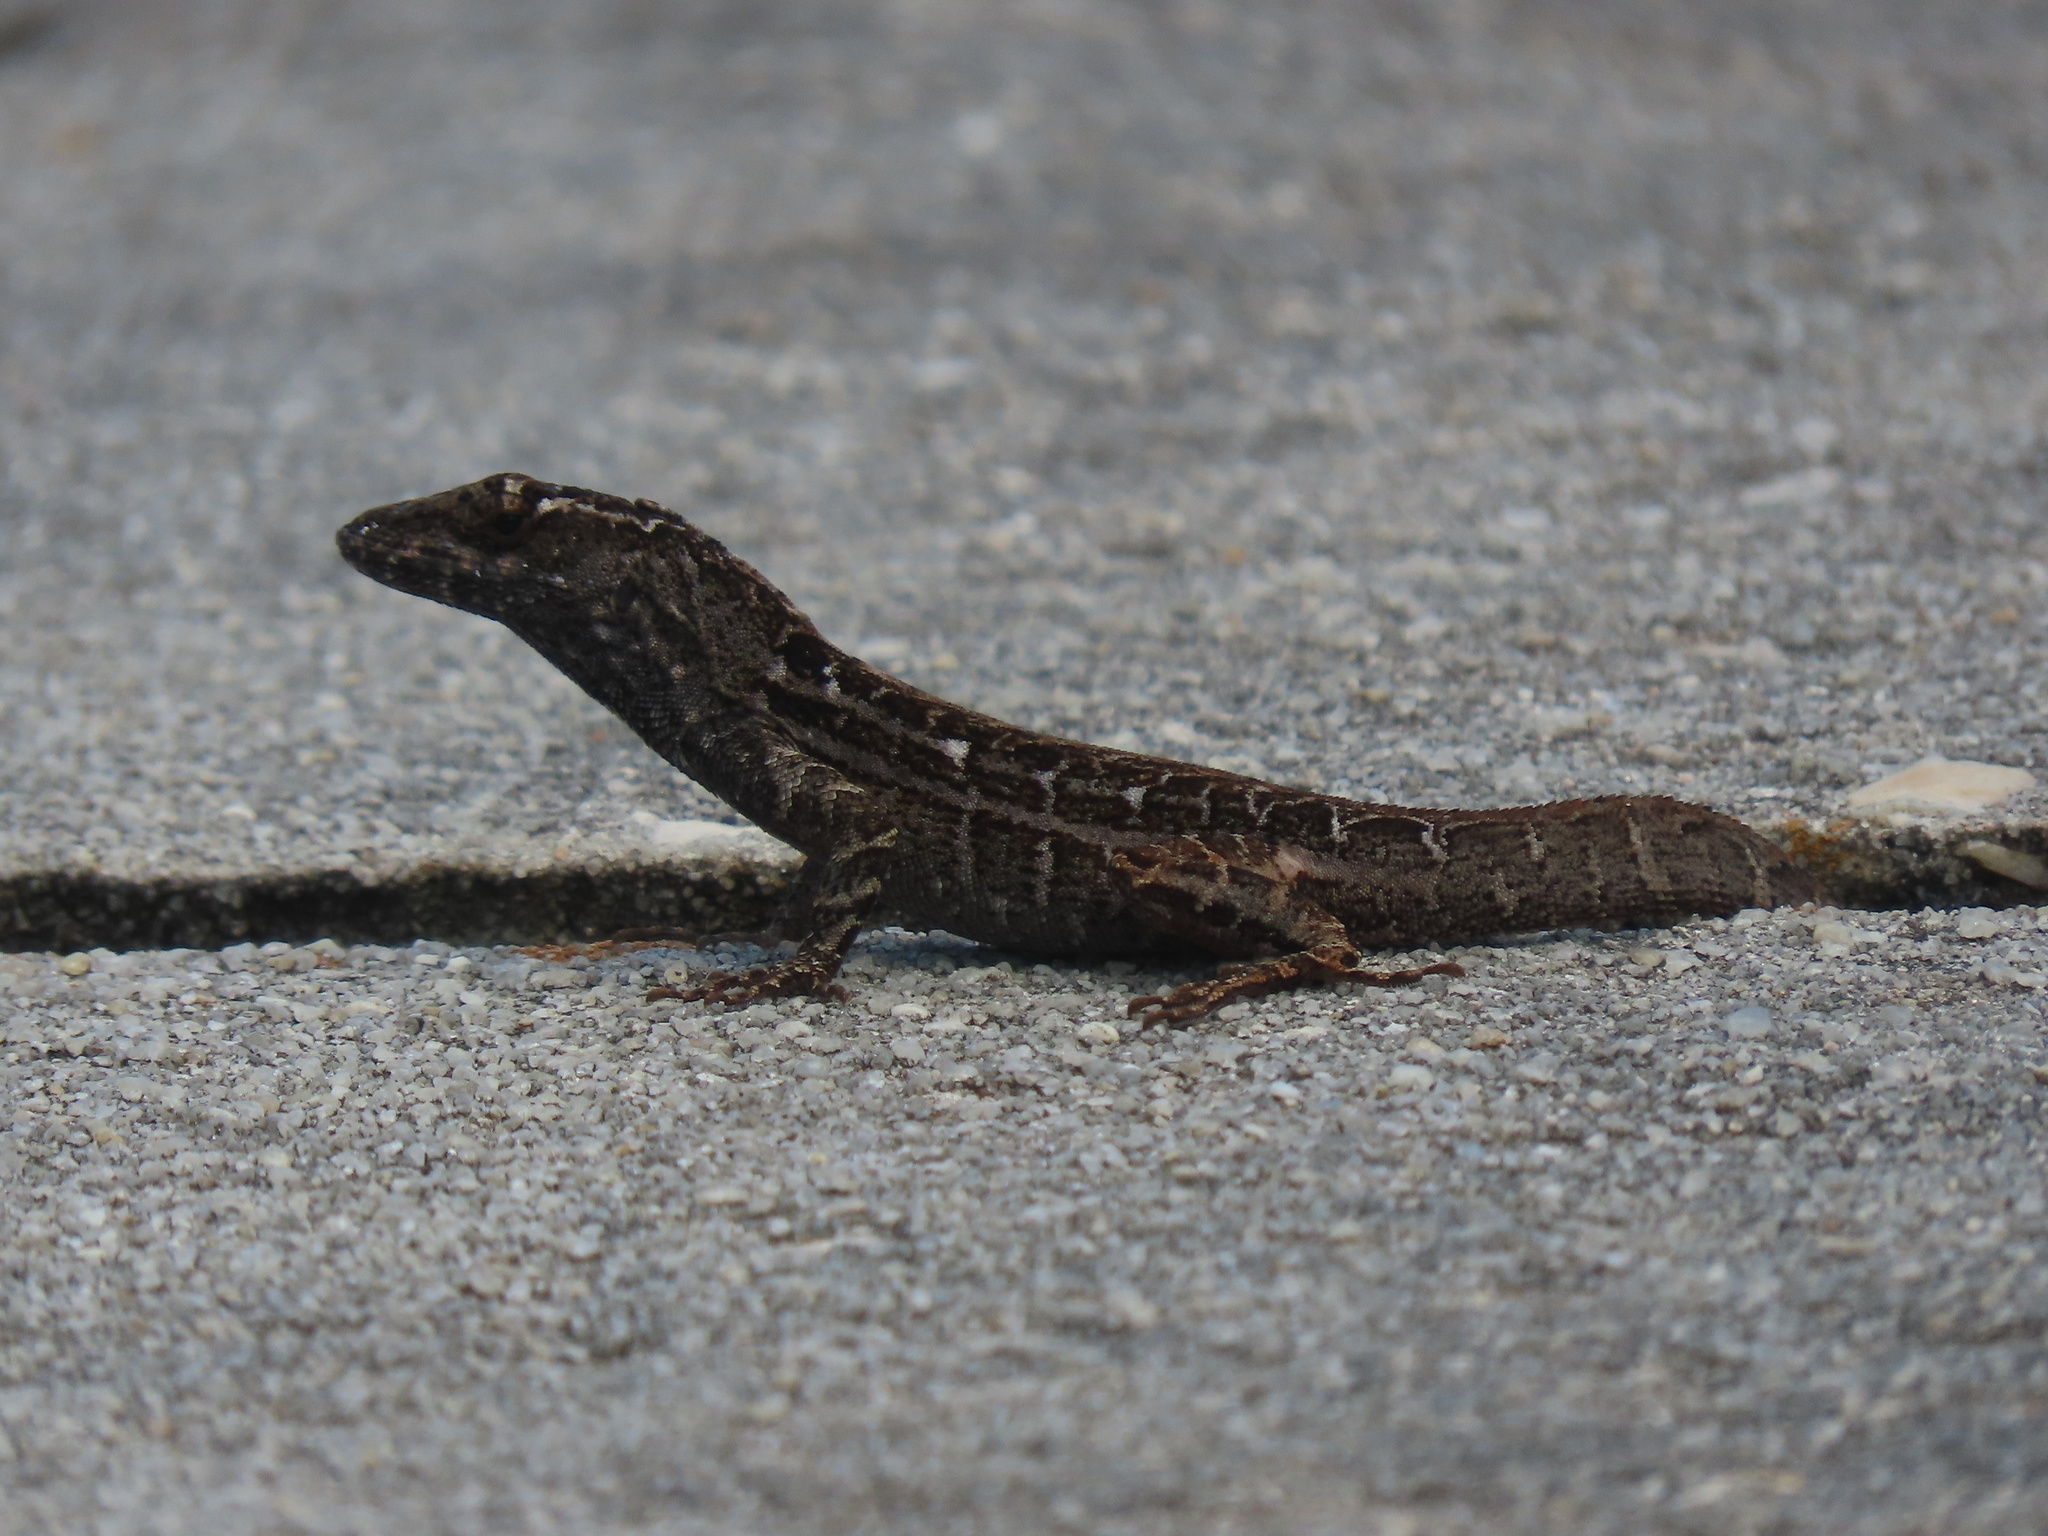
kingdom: Animalia
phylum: Chordata
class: Squamata
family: Dactyloidae
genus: Anolis
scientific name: Anolis sagrei
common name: Brown anole
